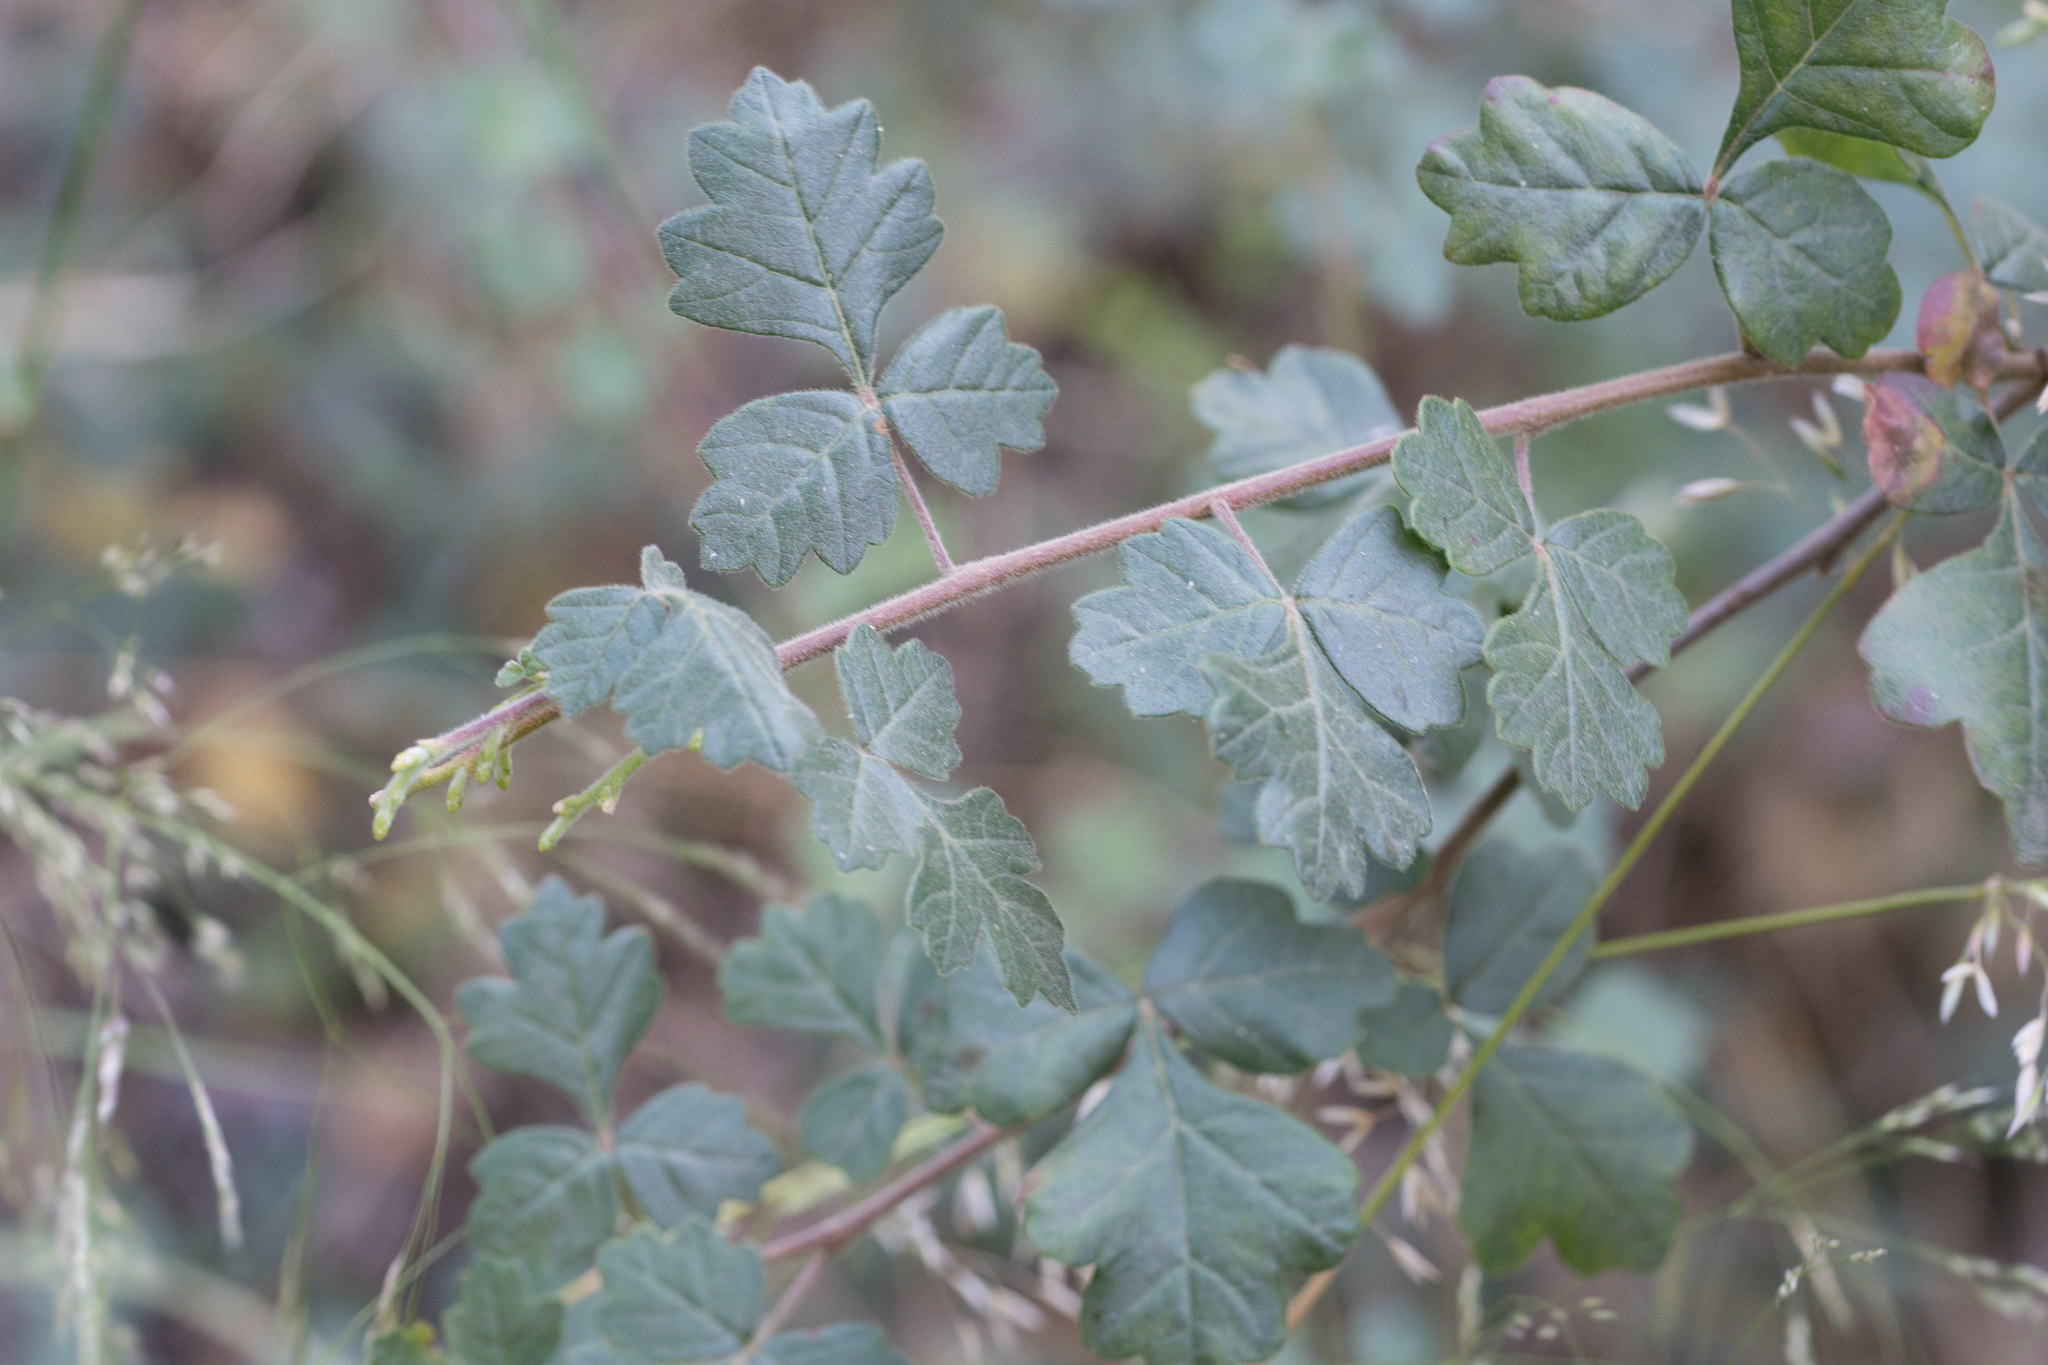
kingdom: Plantae
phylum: Tracheophyta
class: Magnoliopsida
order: Sapindales
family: Anacardiaceae
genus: Rhus
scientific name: Rhus aromatica
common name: Aromatic sumac
